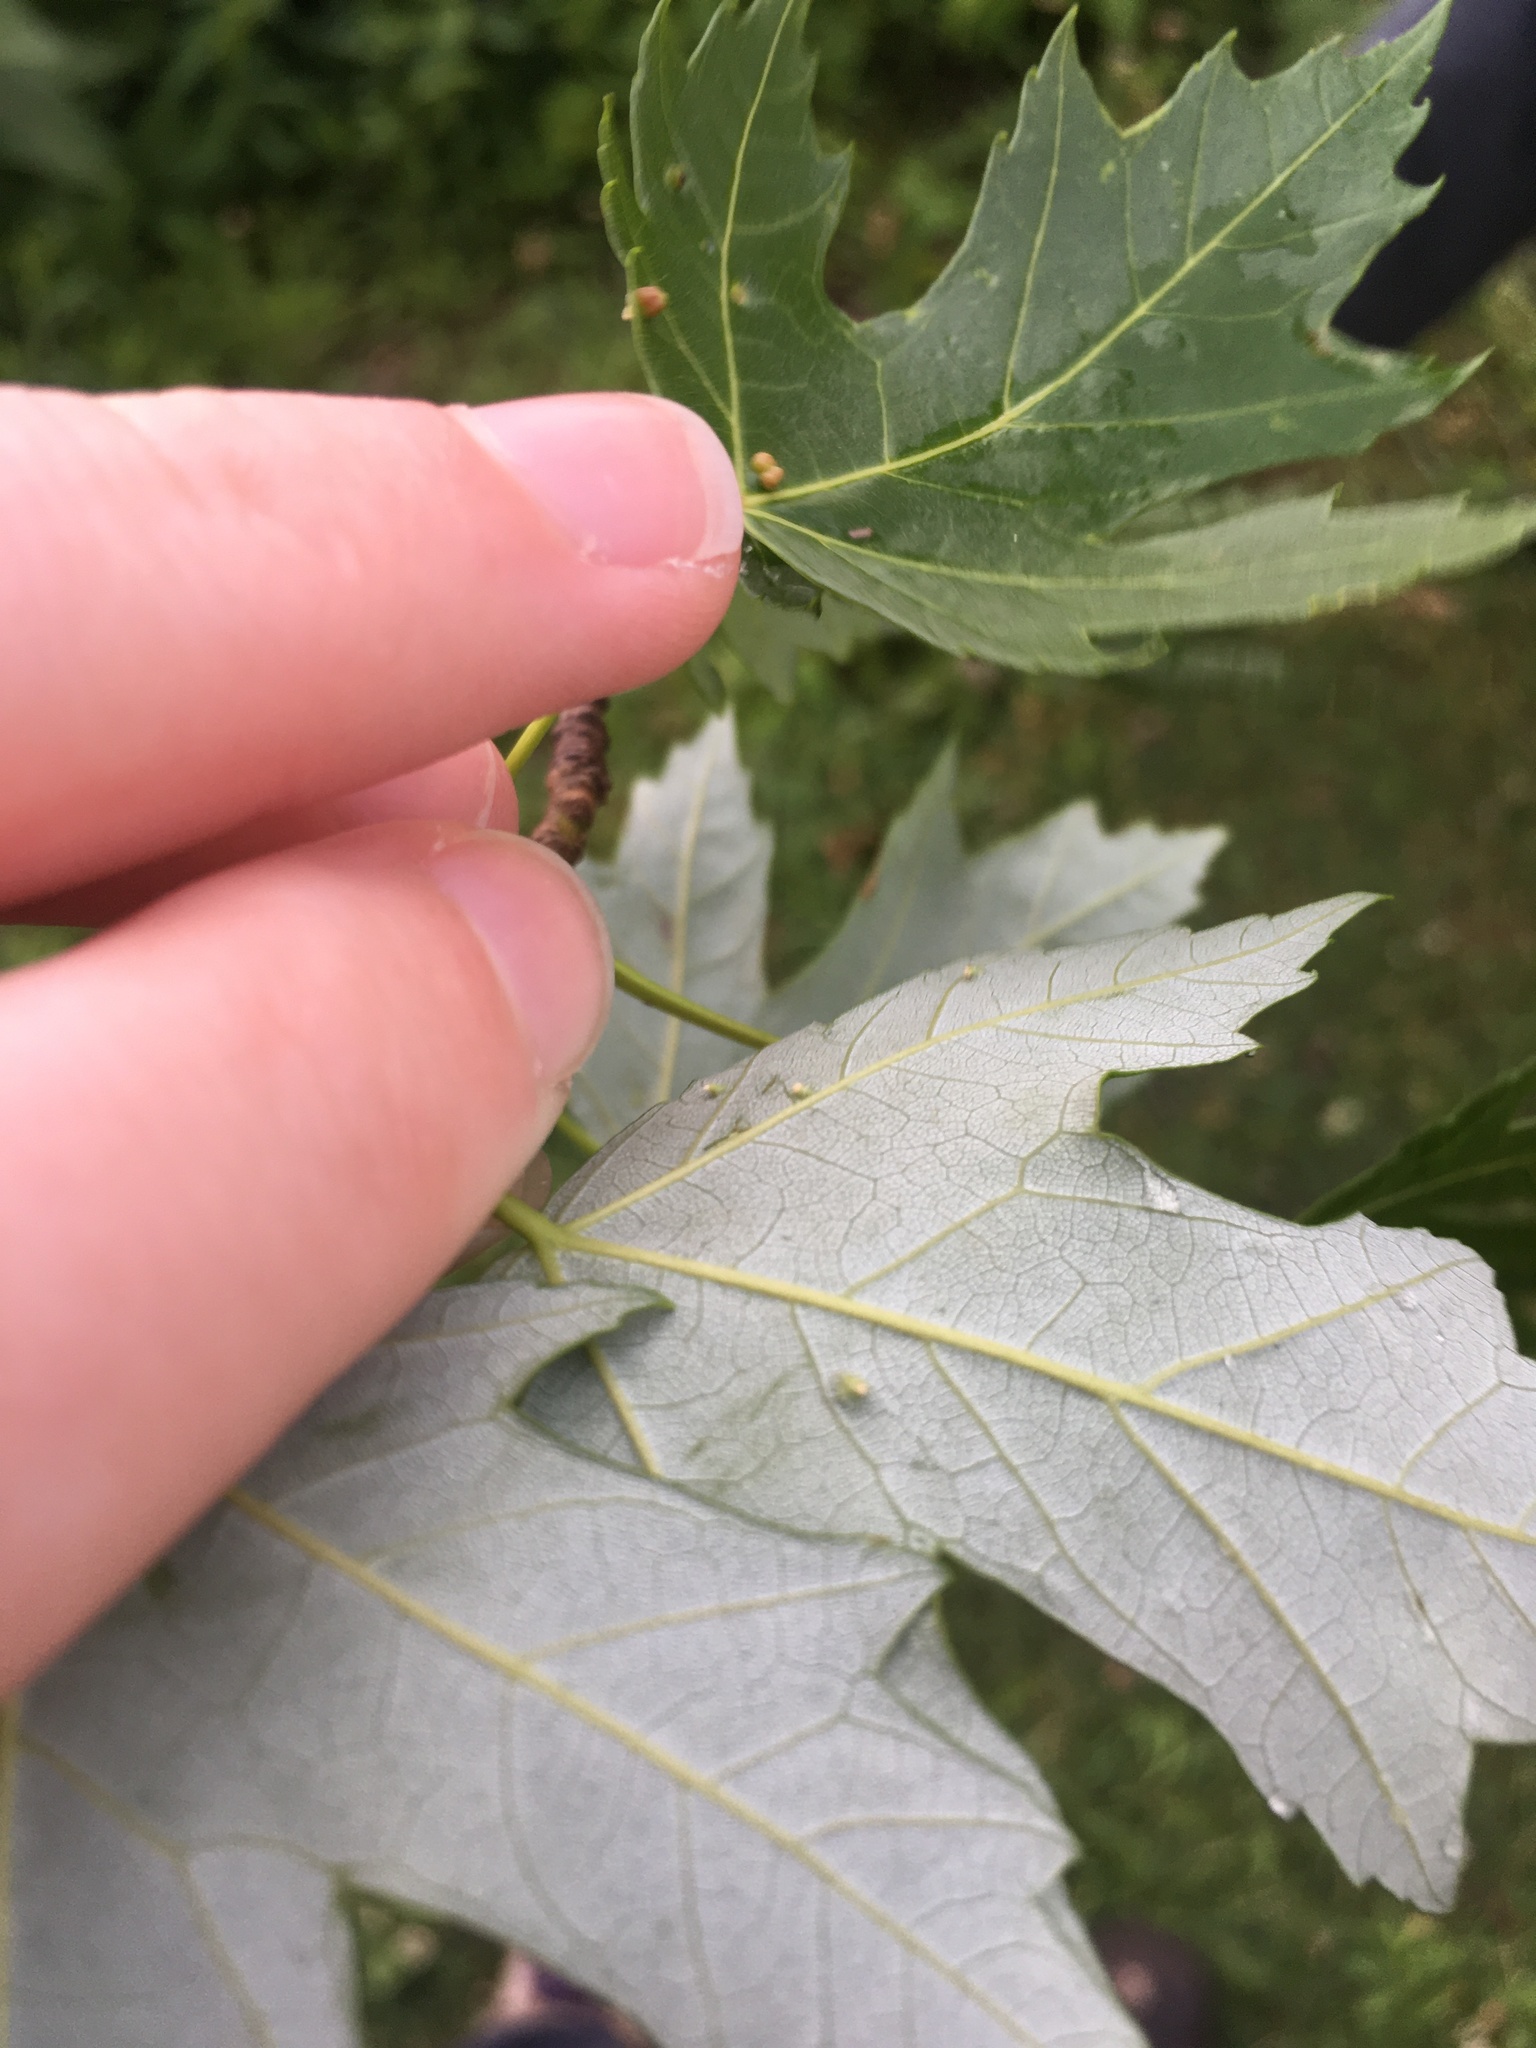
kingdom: Animalia
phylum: Arthropoda
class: Arachnida
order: Trombidiformes
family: Eriophyidae
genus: Vasates
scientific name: Vasates quadripedes
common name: Maple bladder gall mite
